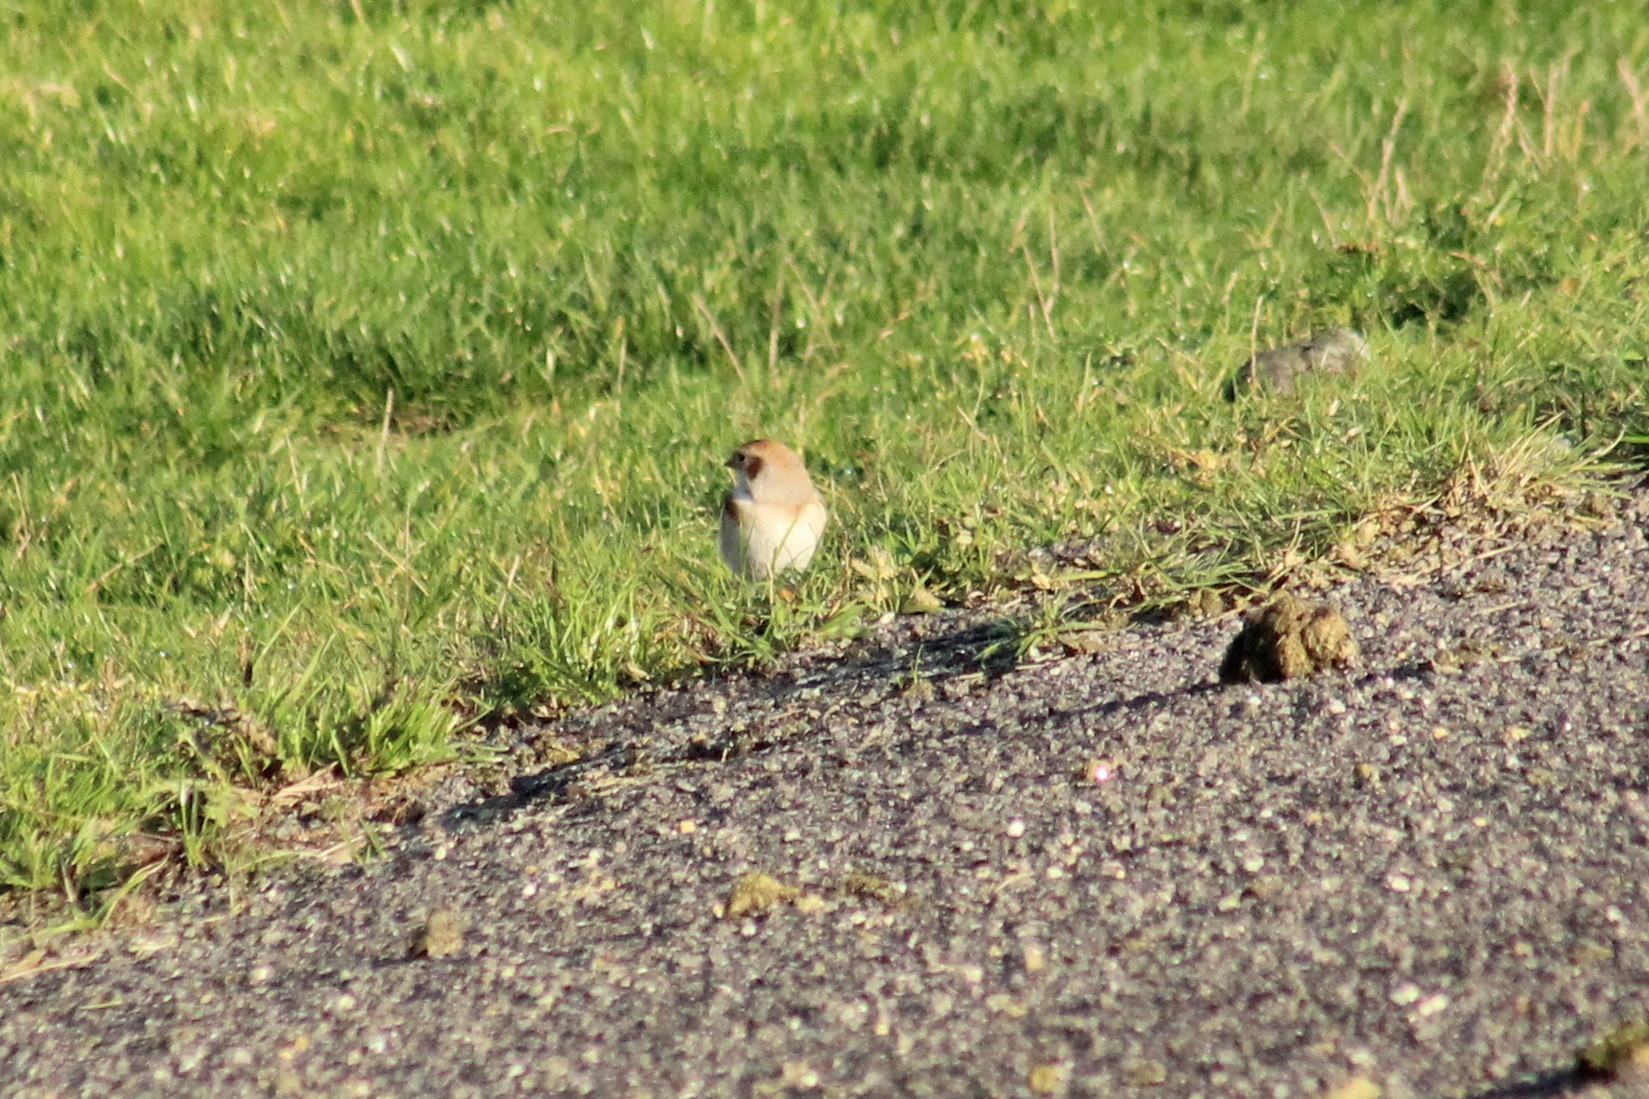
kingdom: Animalia
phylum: Chordata
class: Aves
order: Passeriformes
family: Calcariidae
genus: Plectrophenax
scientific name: Plectrophenax nivalis
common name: Snow bunting
